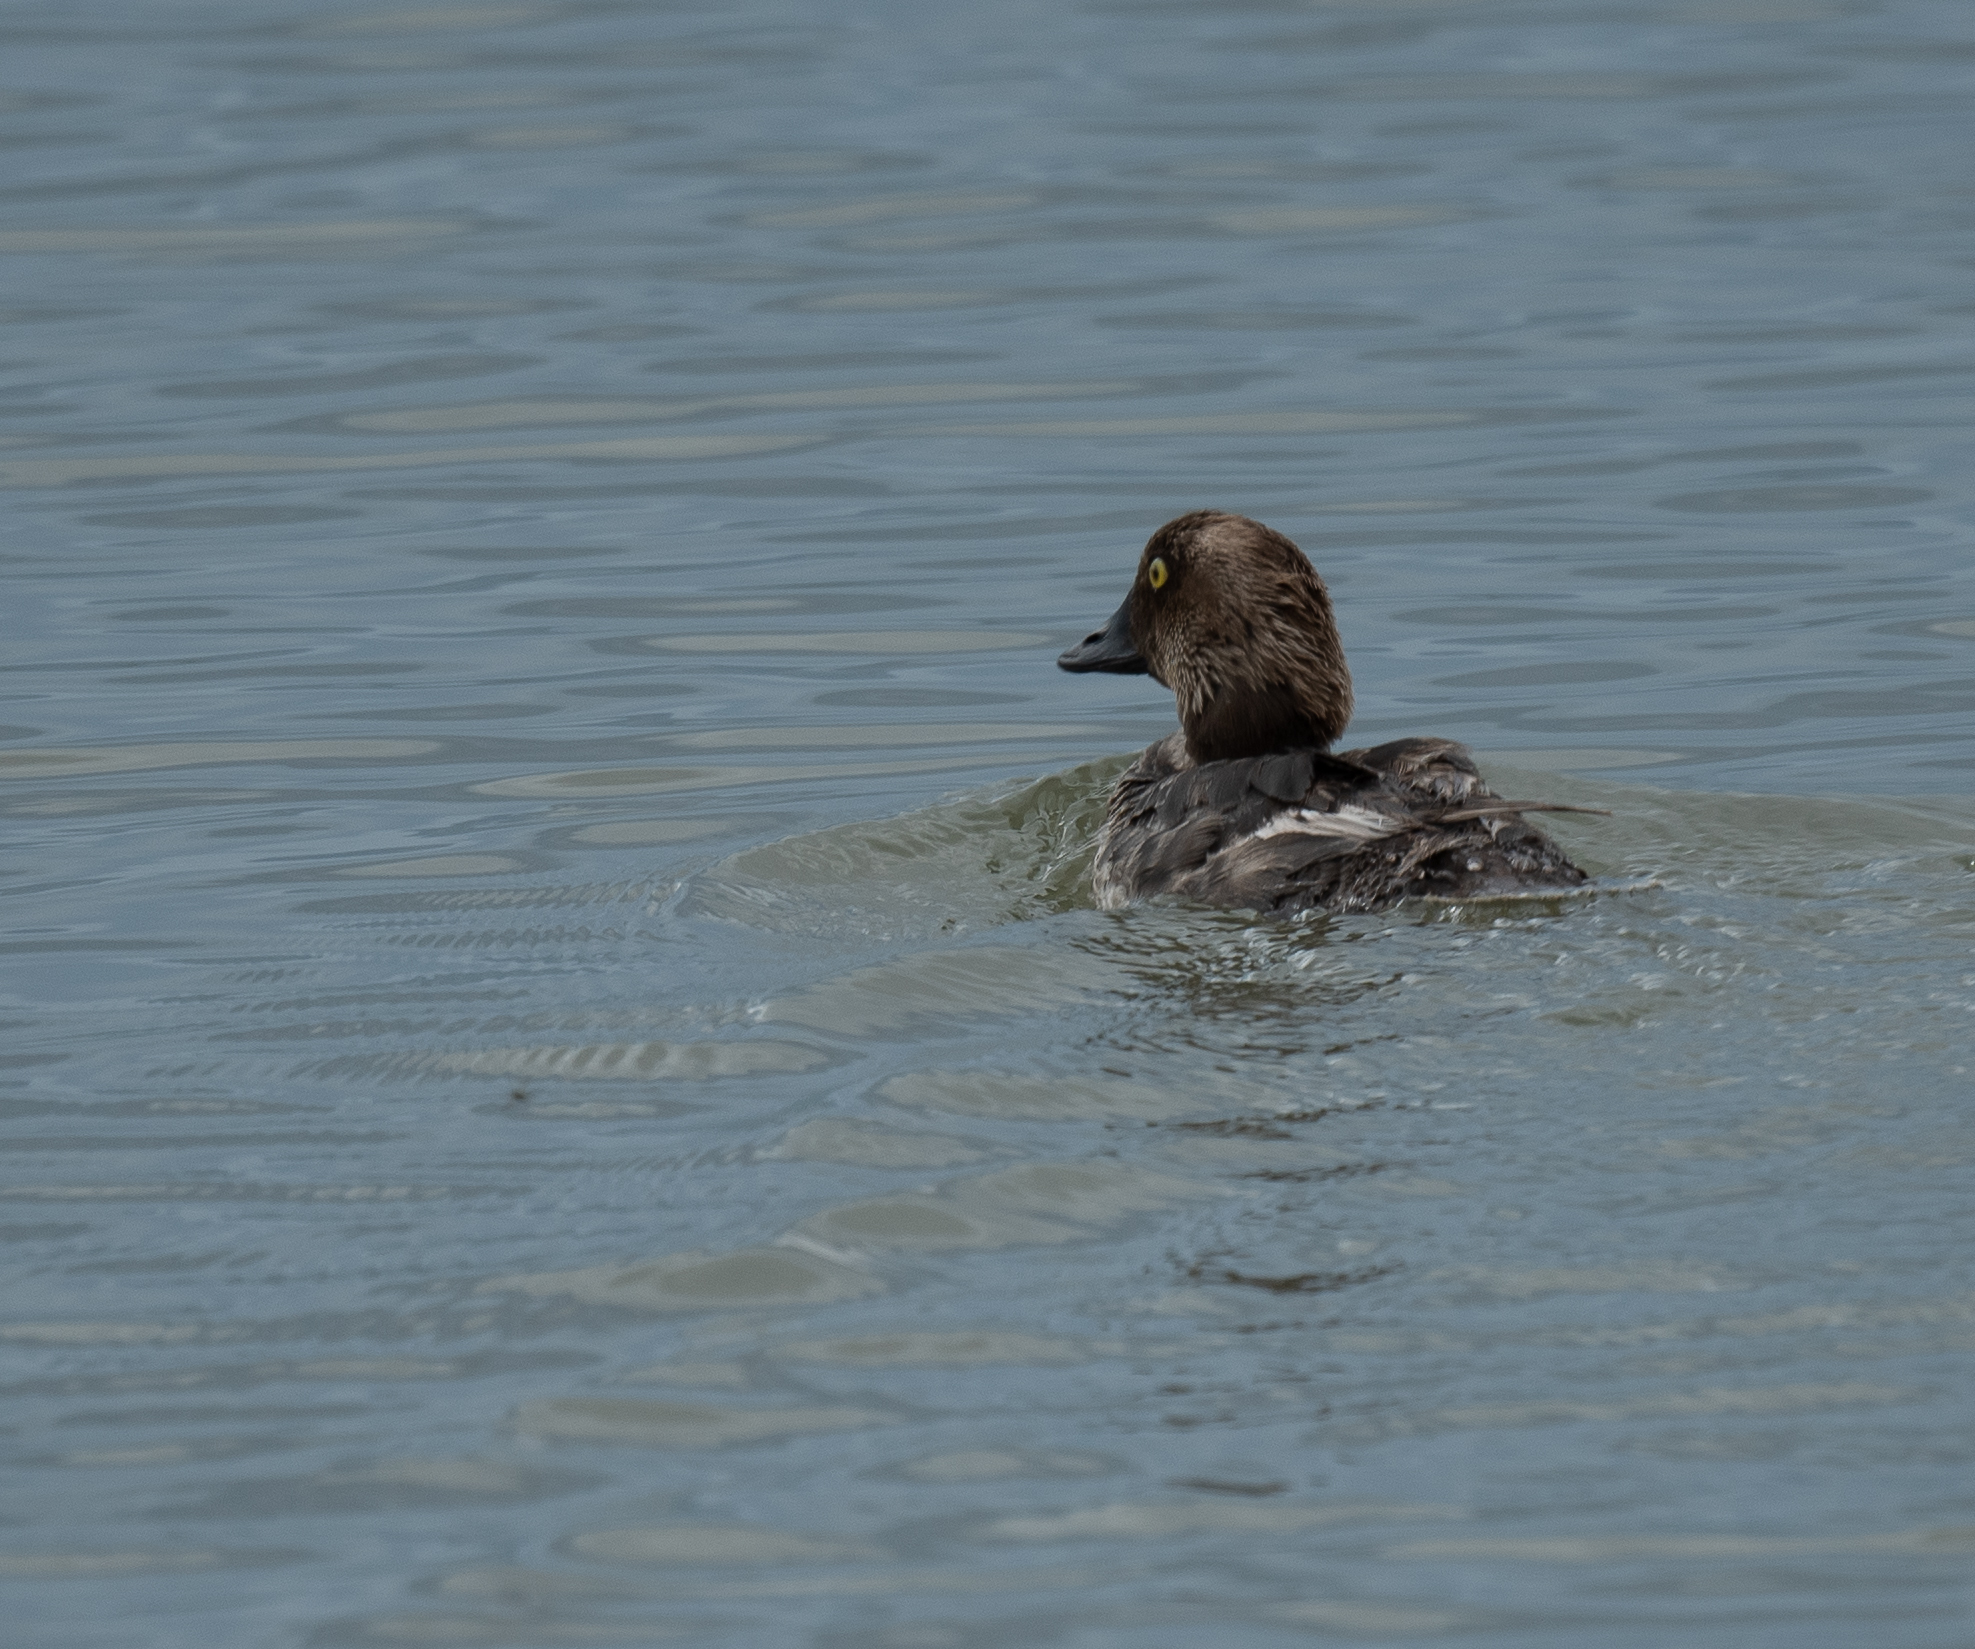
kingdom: Animalia
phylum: Chordata
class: Aves
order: Anseriformes
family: Anatidae
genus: Bucephala
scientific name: Bucephala clangula
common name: Common goldeneye
